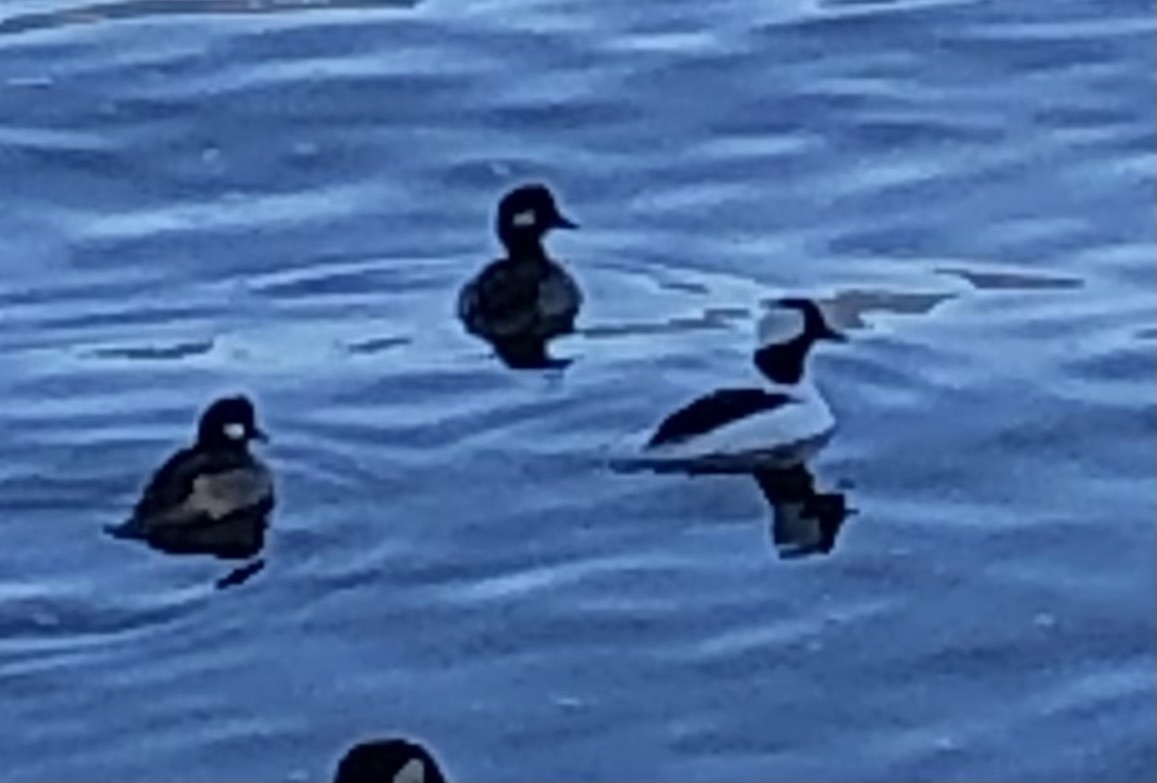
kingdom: Animalia
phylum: Chordata
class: Aves
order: Anseriformes
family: Anatidae
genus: Bucephala
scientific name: Bucephala albeola
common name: Bufflehead
